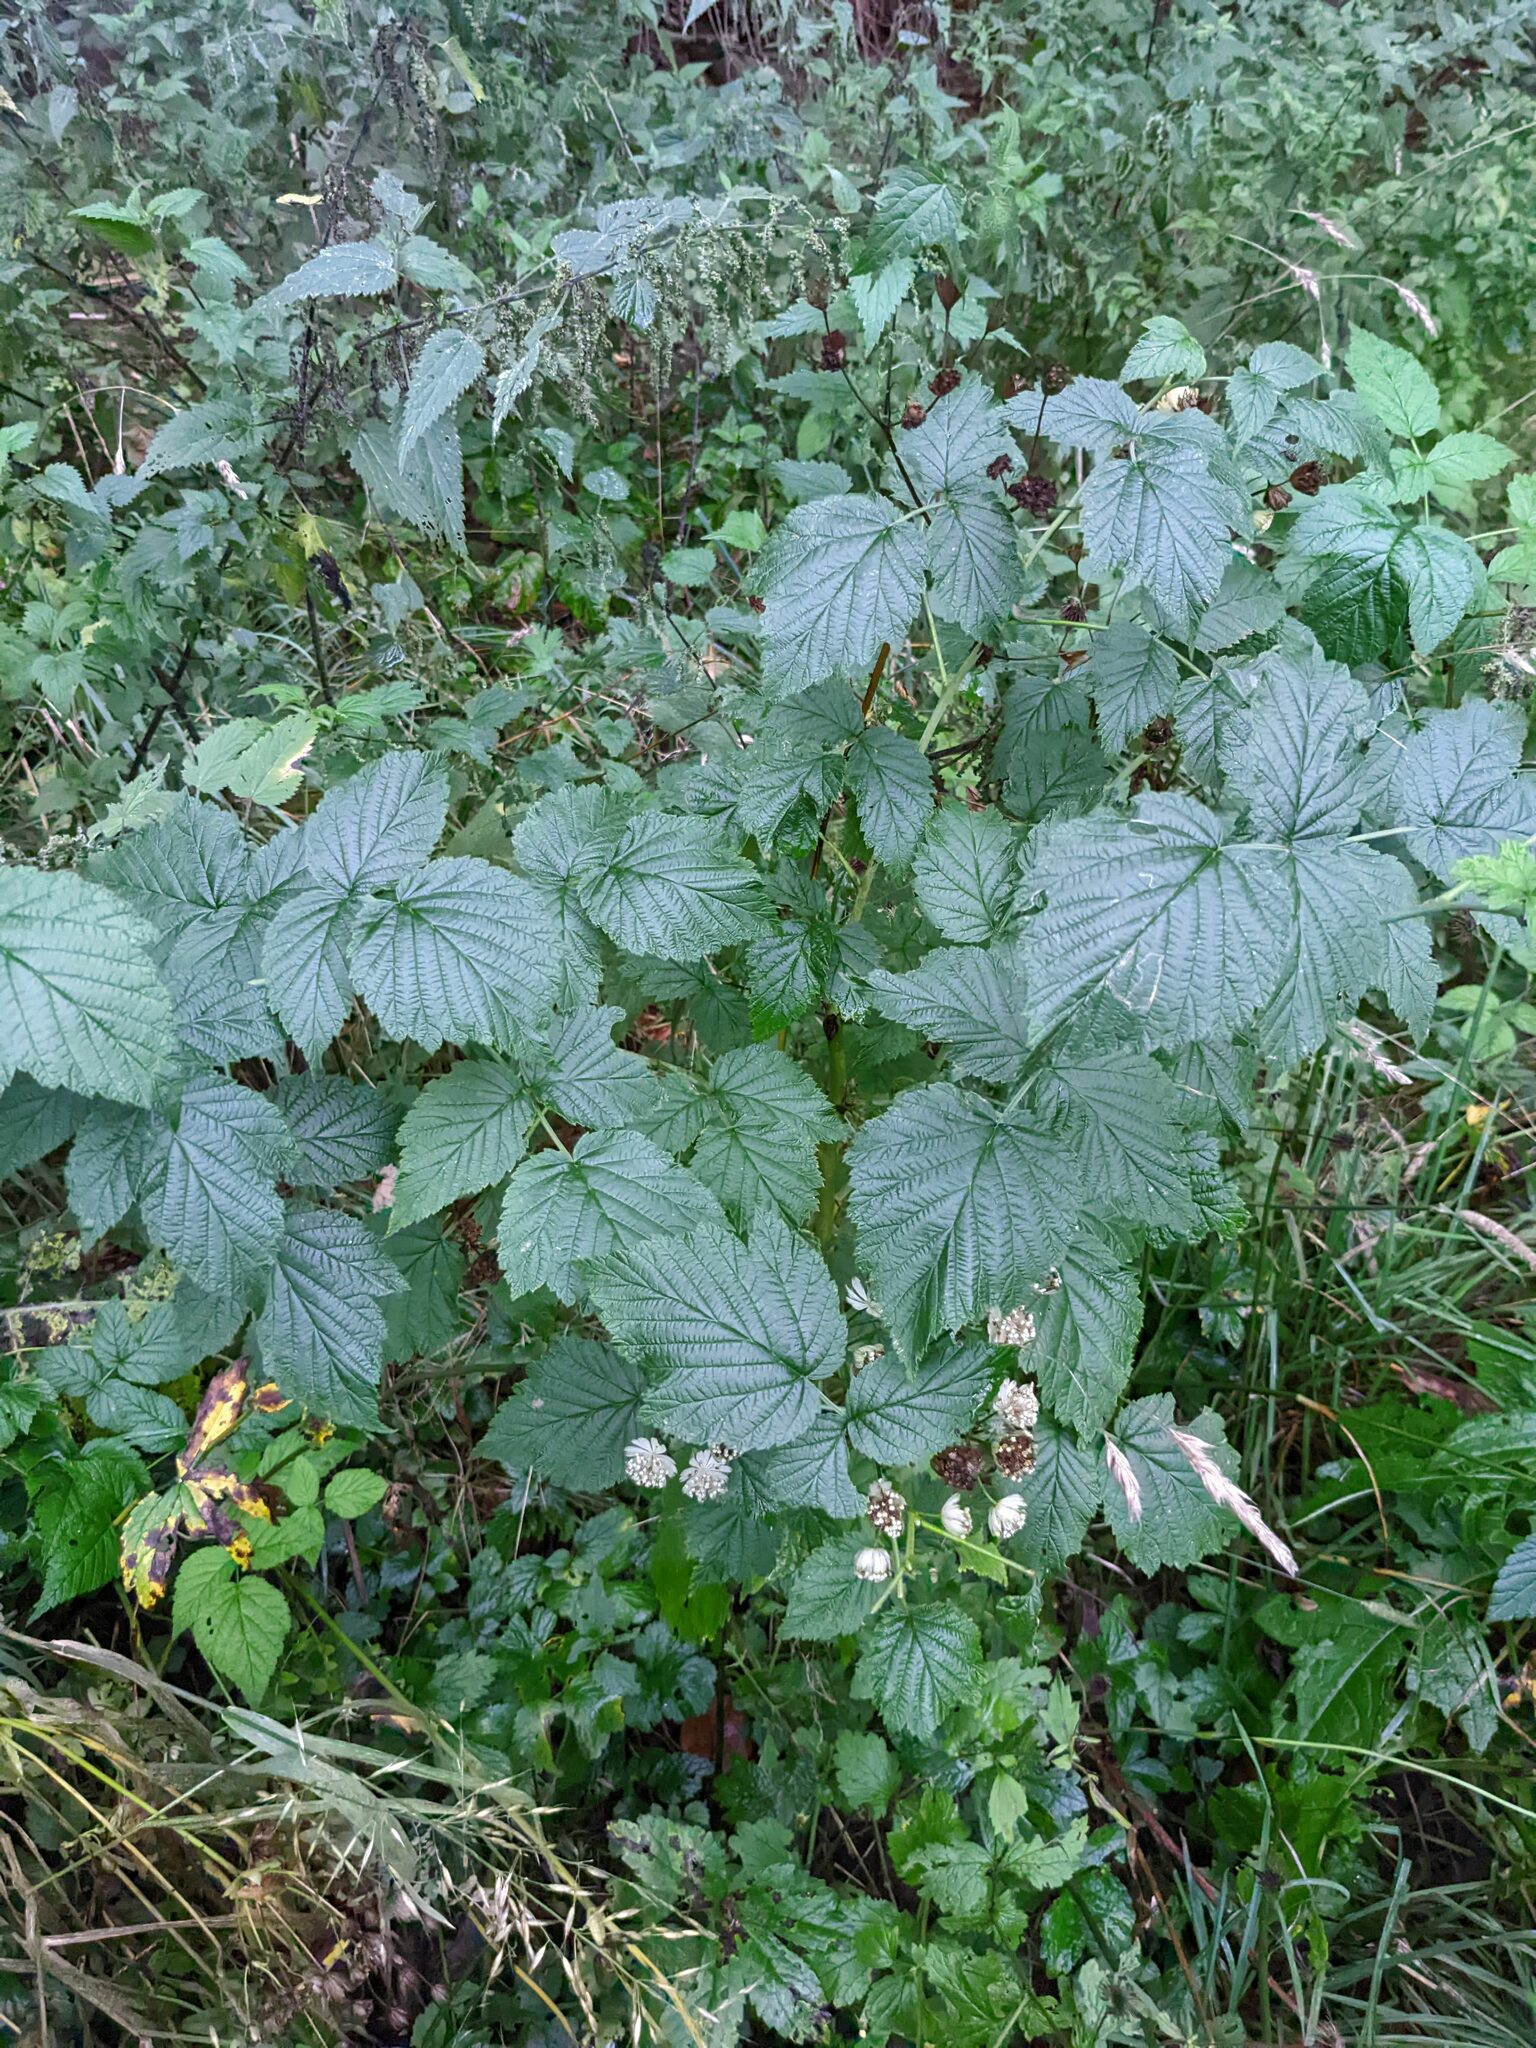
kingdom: Plantae
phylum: Tracheophyta
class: Magnoliopsida
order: Apiales
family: Apiaceae
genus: Astrantia
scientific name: Astrantia major
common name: Greater masterwort
